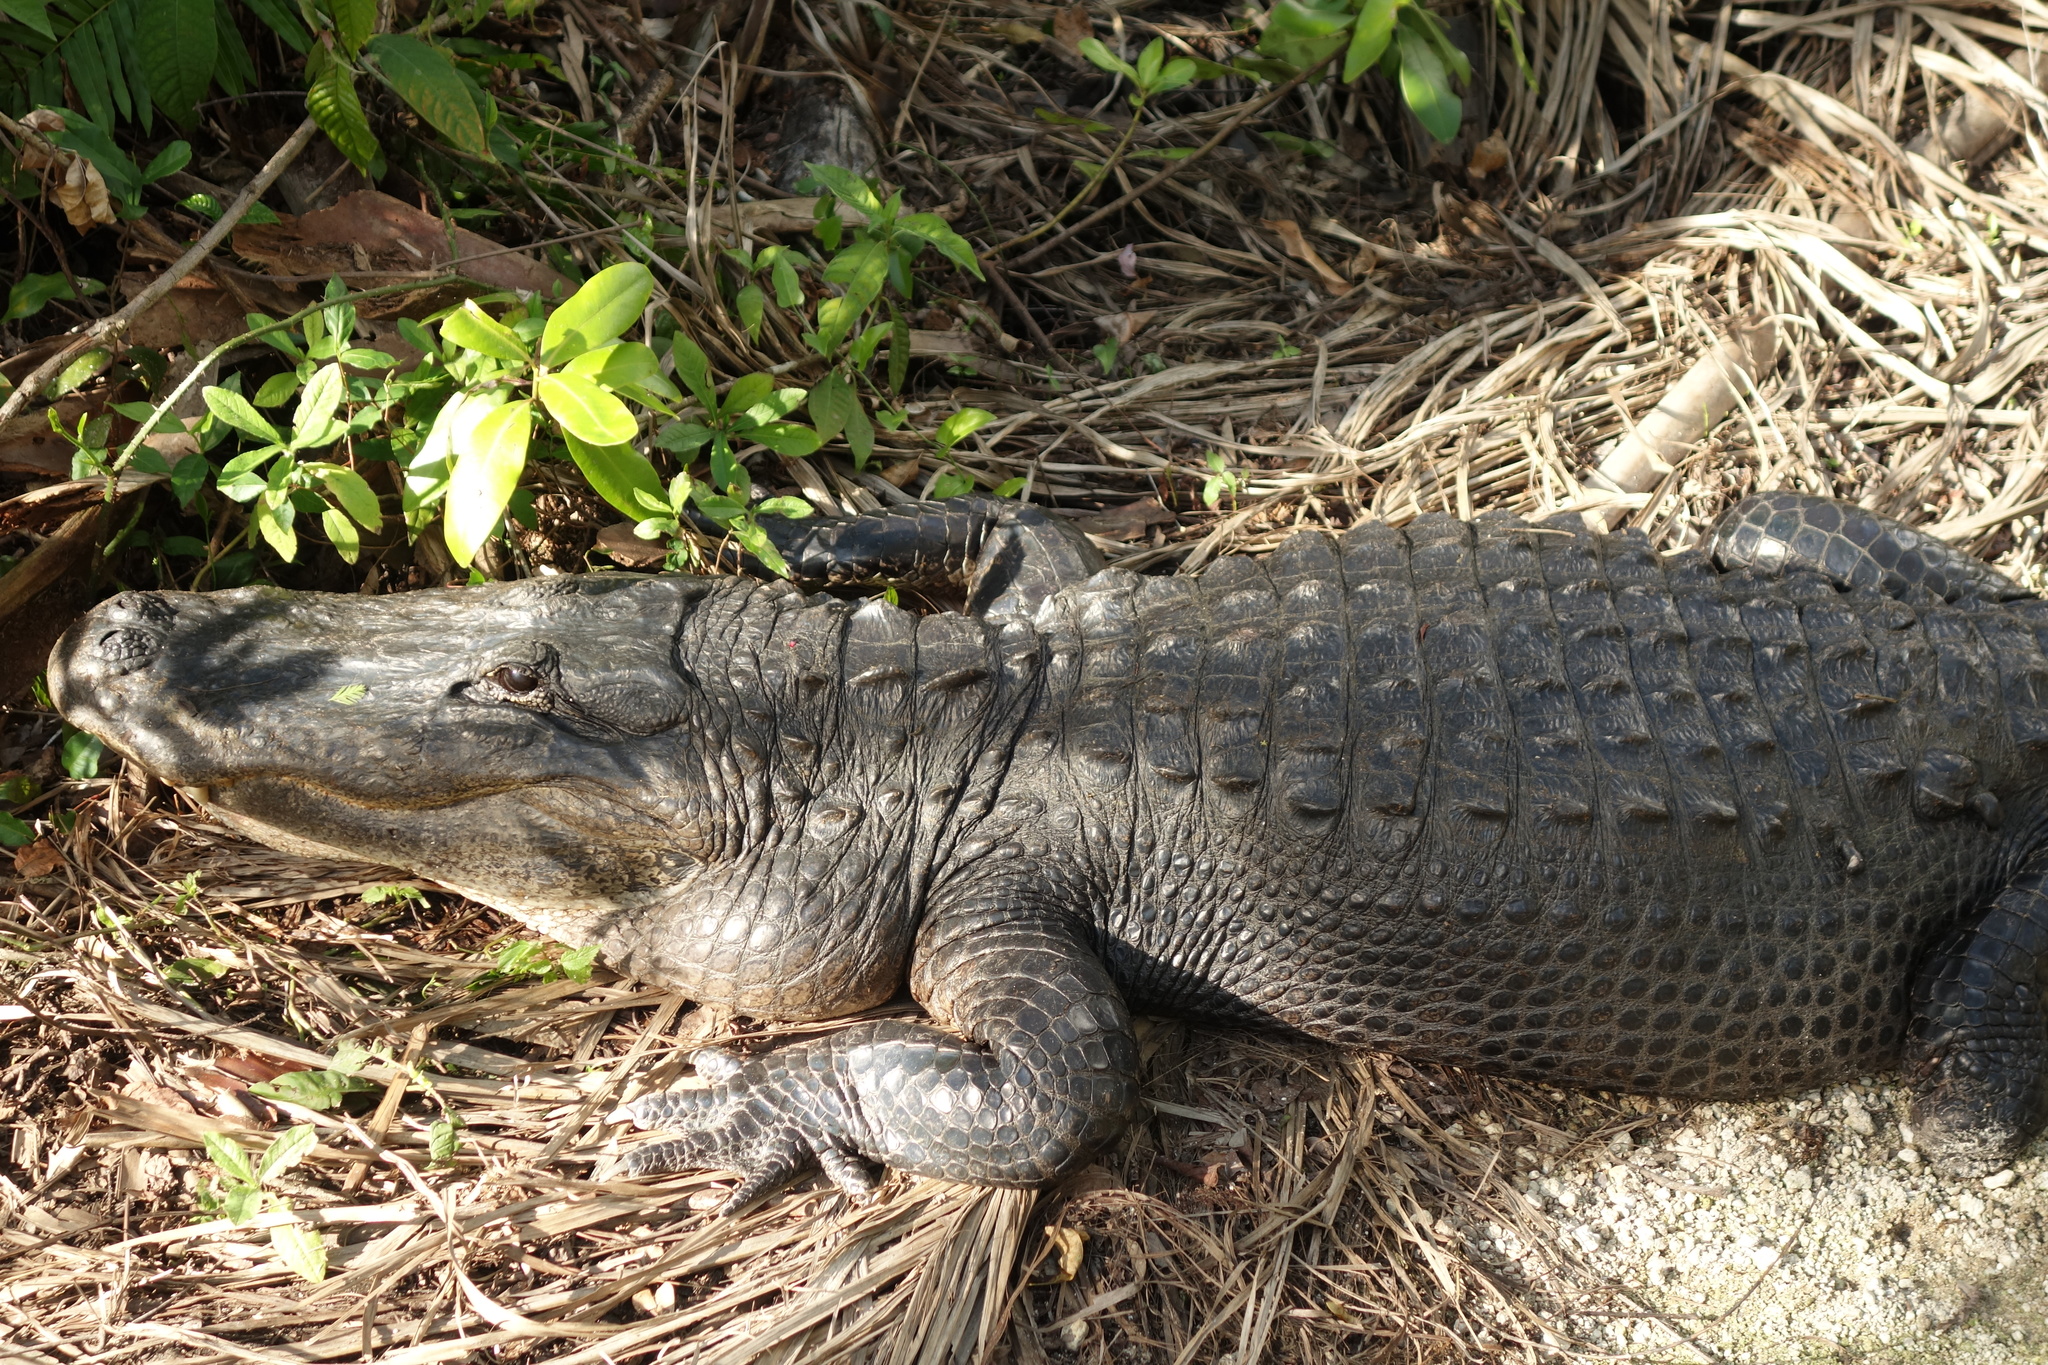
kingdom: Animalia
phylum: Chordata
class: Crocodylia
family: Alligatoridae
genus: Alligator
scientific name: Alligator mississippiensis
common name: American alligator
